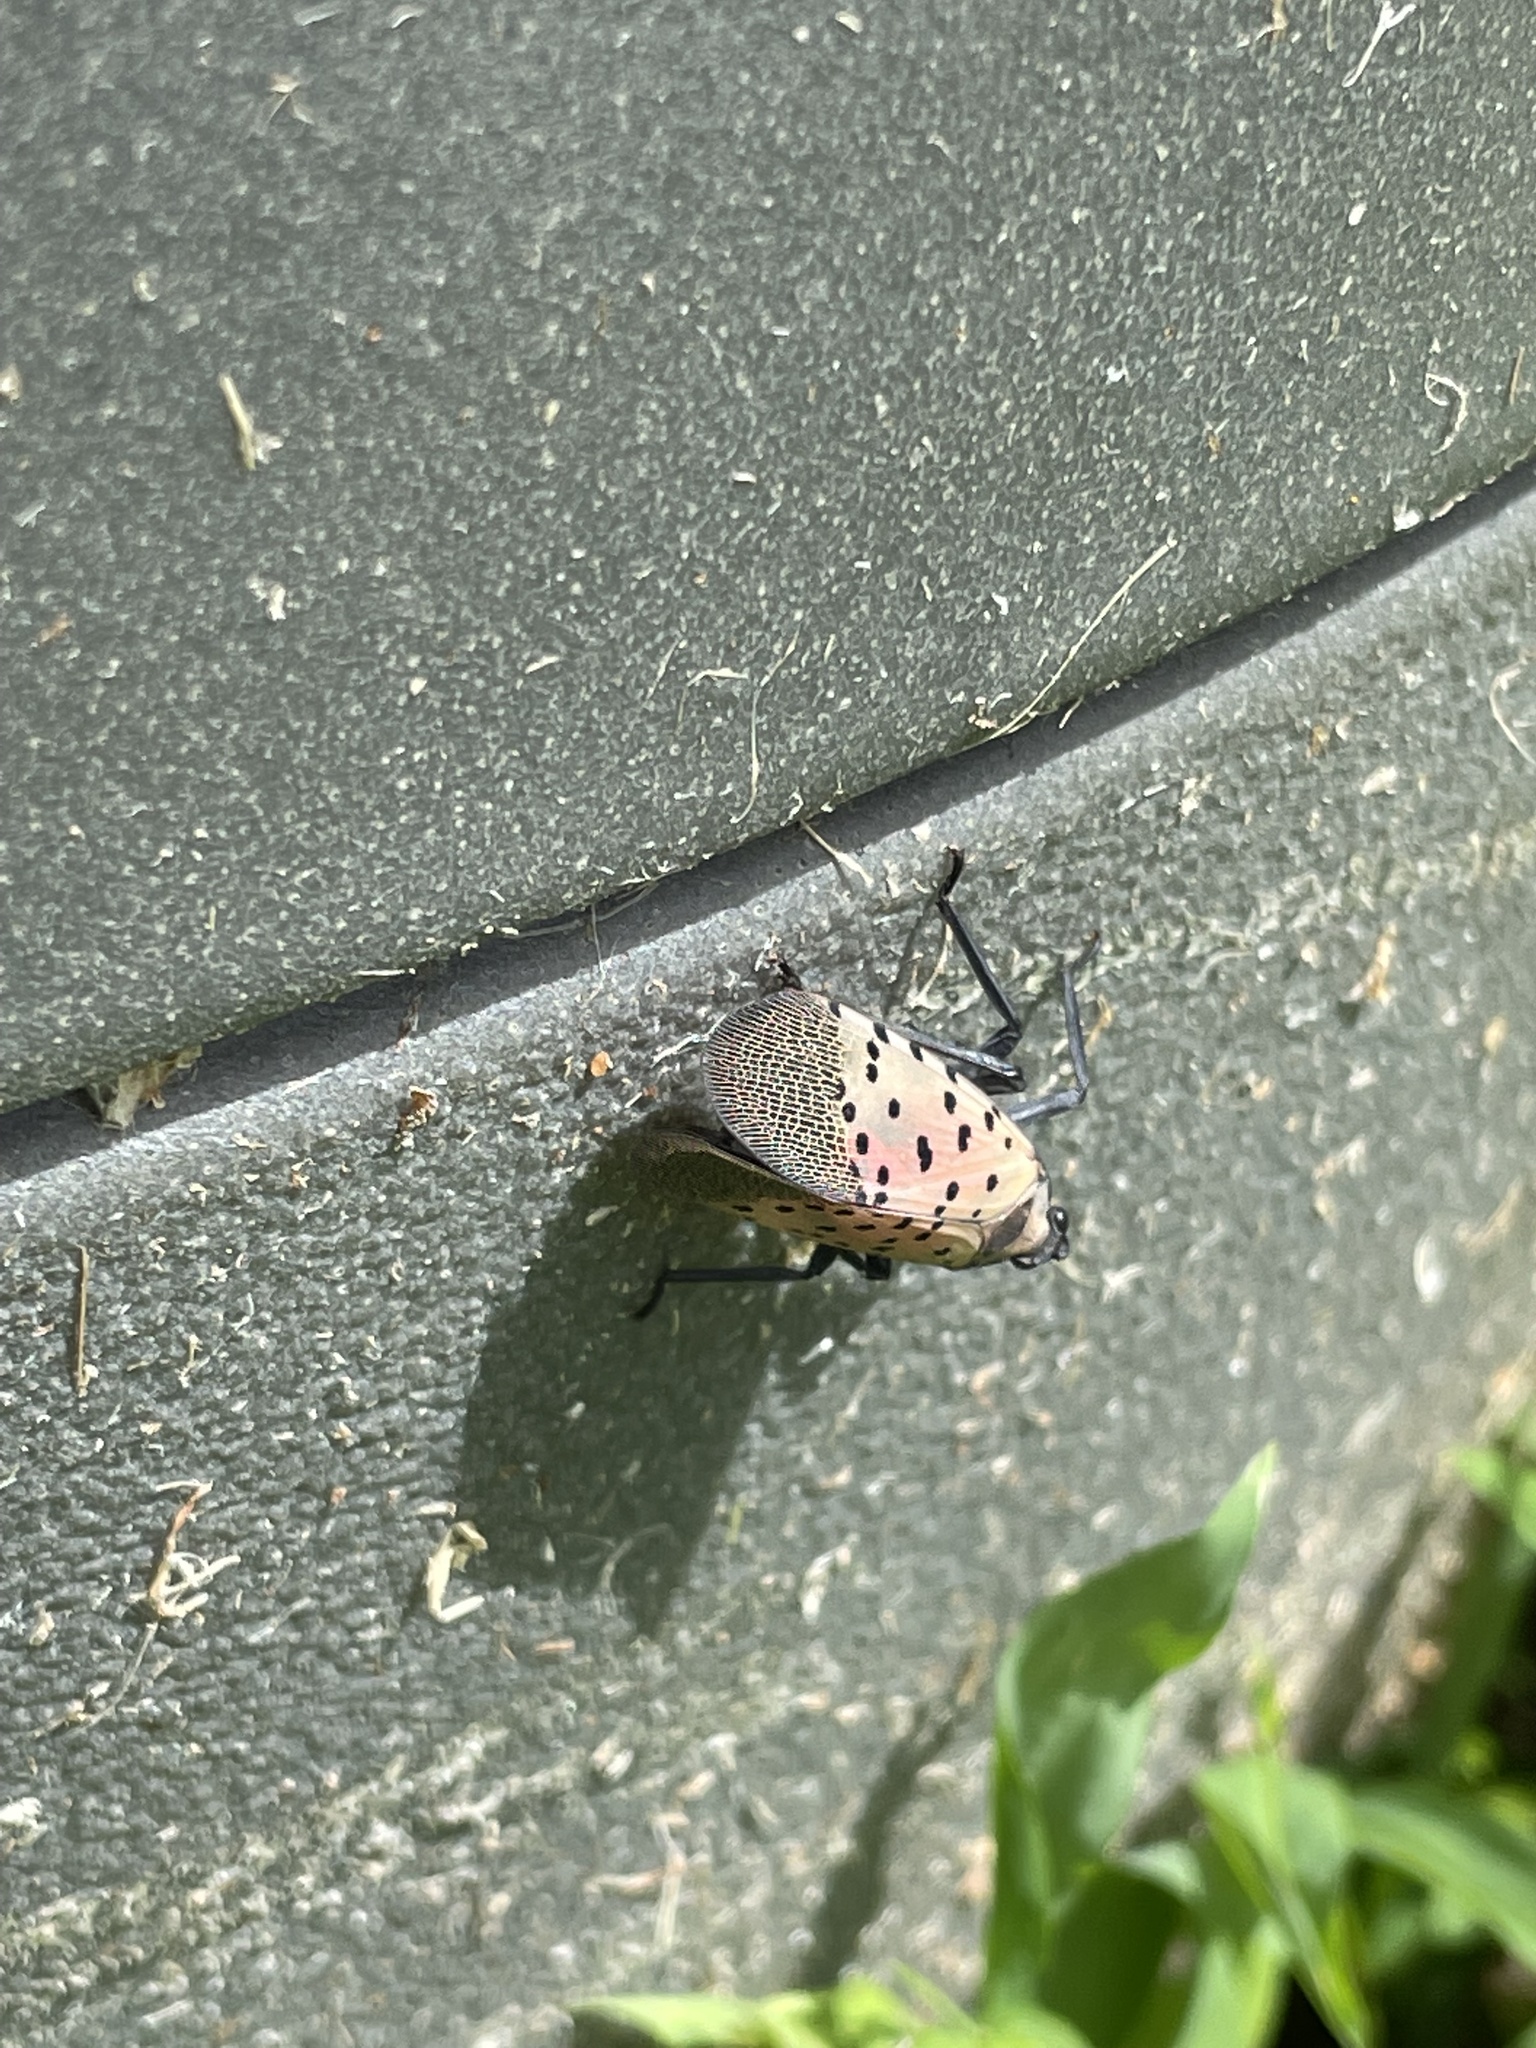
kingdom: Animalia
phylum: Arthropoda
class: Insecta
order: Hemiptera
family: Fulgoridae
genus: Lycorma
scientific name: Lycorma delicatula
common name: Spotted lanternfly
